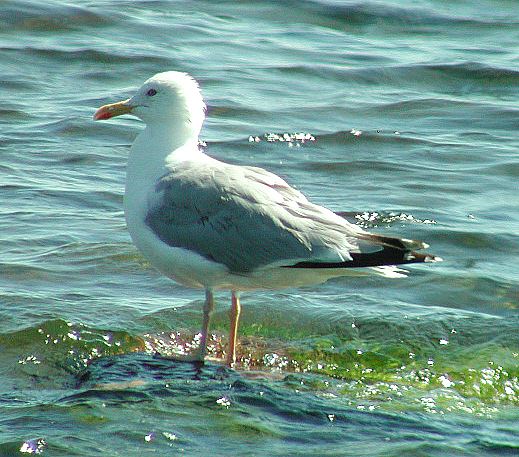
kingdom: Animalia
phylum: Chordata
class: Aves
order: Charadriiformes
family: Laridae
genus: Larus
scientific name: Larus argentatus
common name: Herring gull
